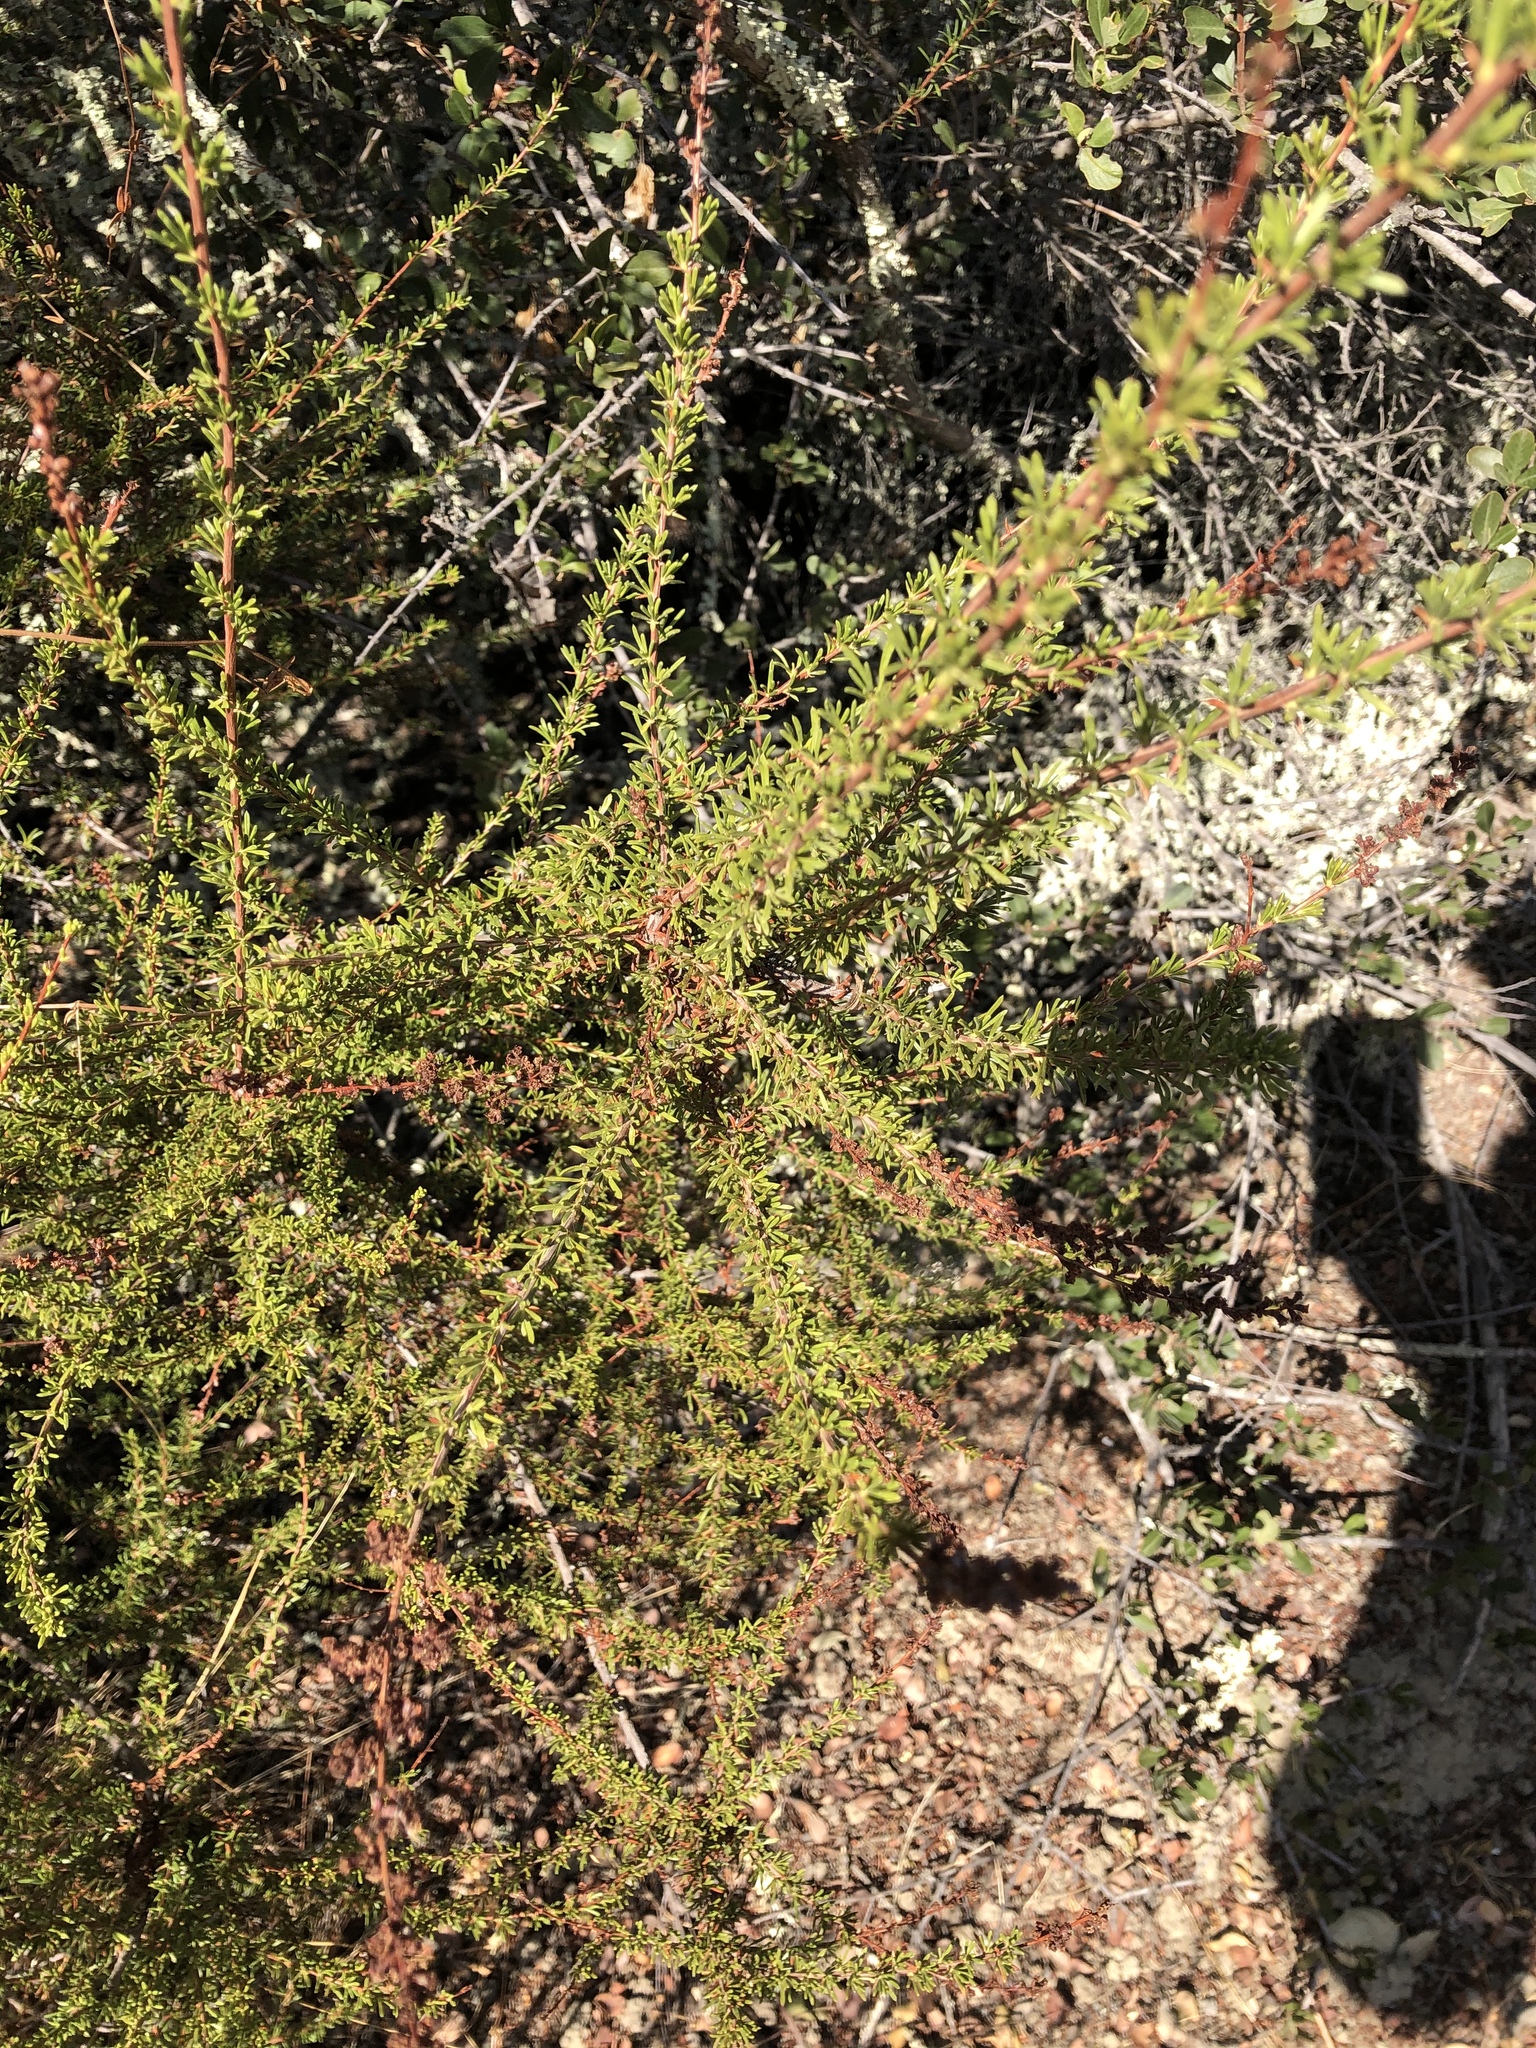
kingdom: Plantae
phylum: Tracheophyta
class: Magnoliopsida
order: Rosales
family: Rosaceae
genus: Adenostoma
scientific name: Adenostoma fasciculatum
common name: Chamise
